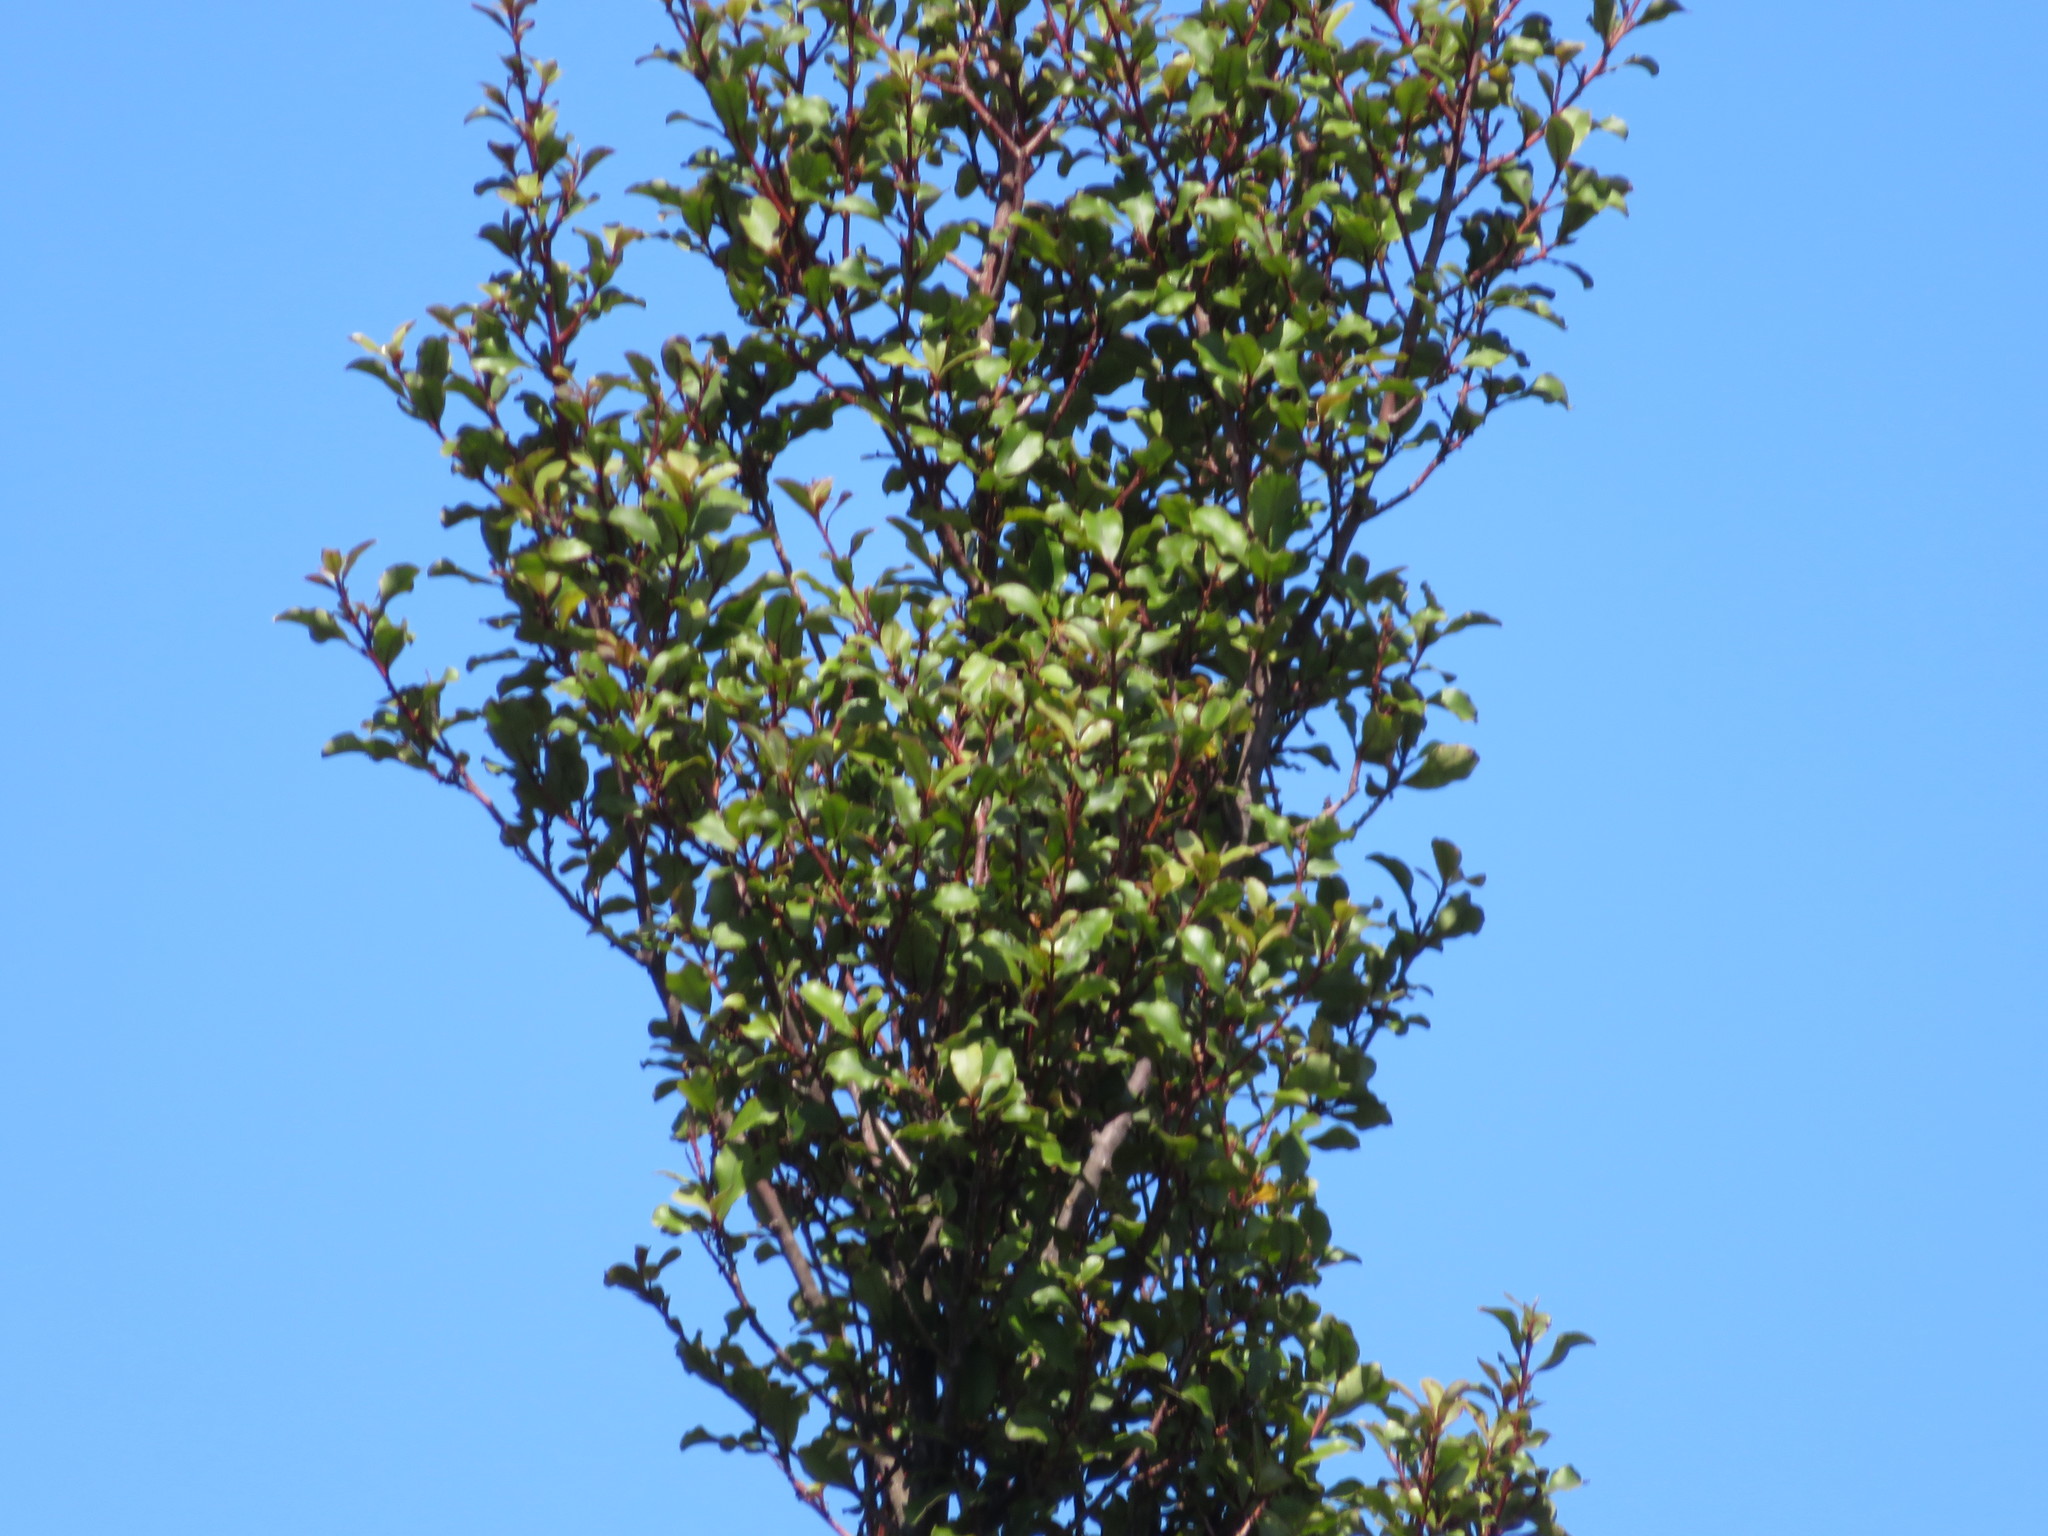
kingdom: Plantae
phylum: Tracheophyta
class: Magnoliopsida
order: Ericales
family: Primulaceae
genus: Myrsine
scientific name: Myrsine australis
